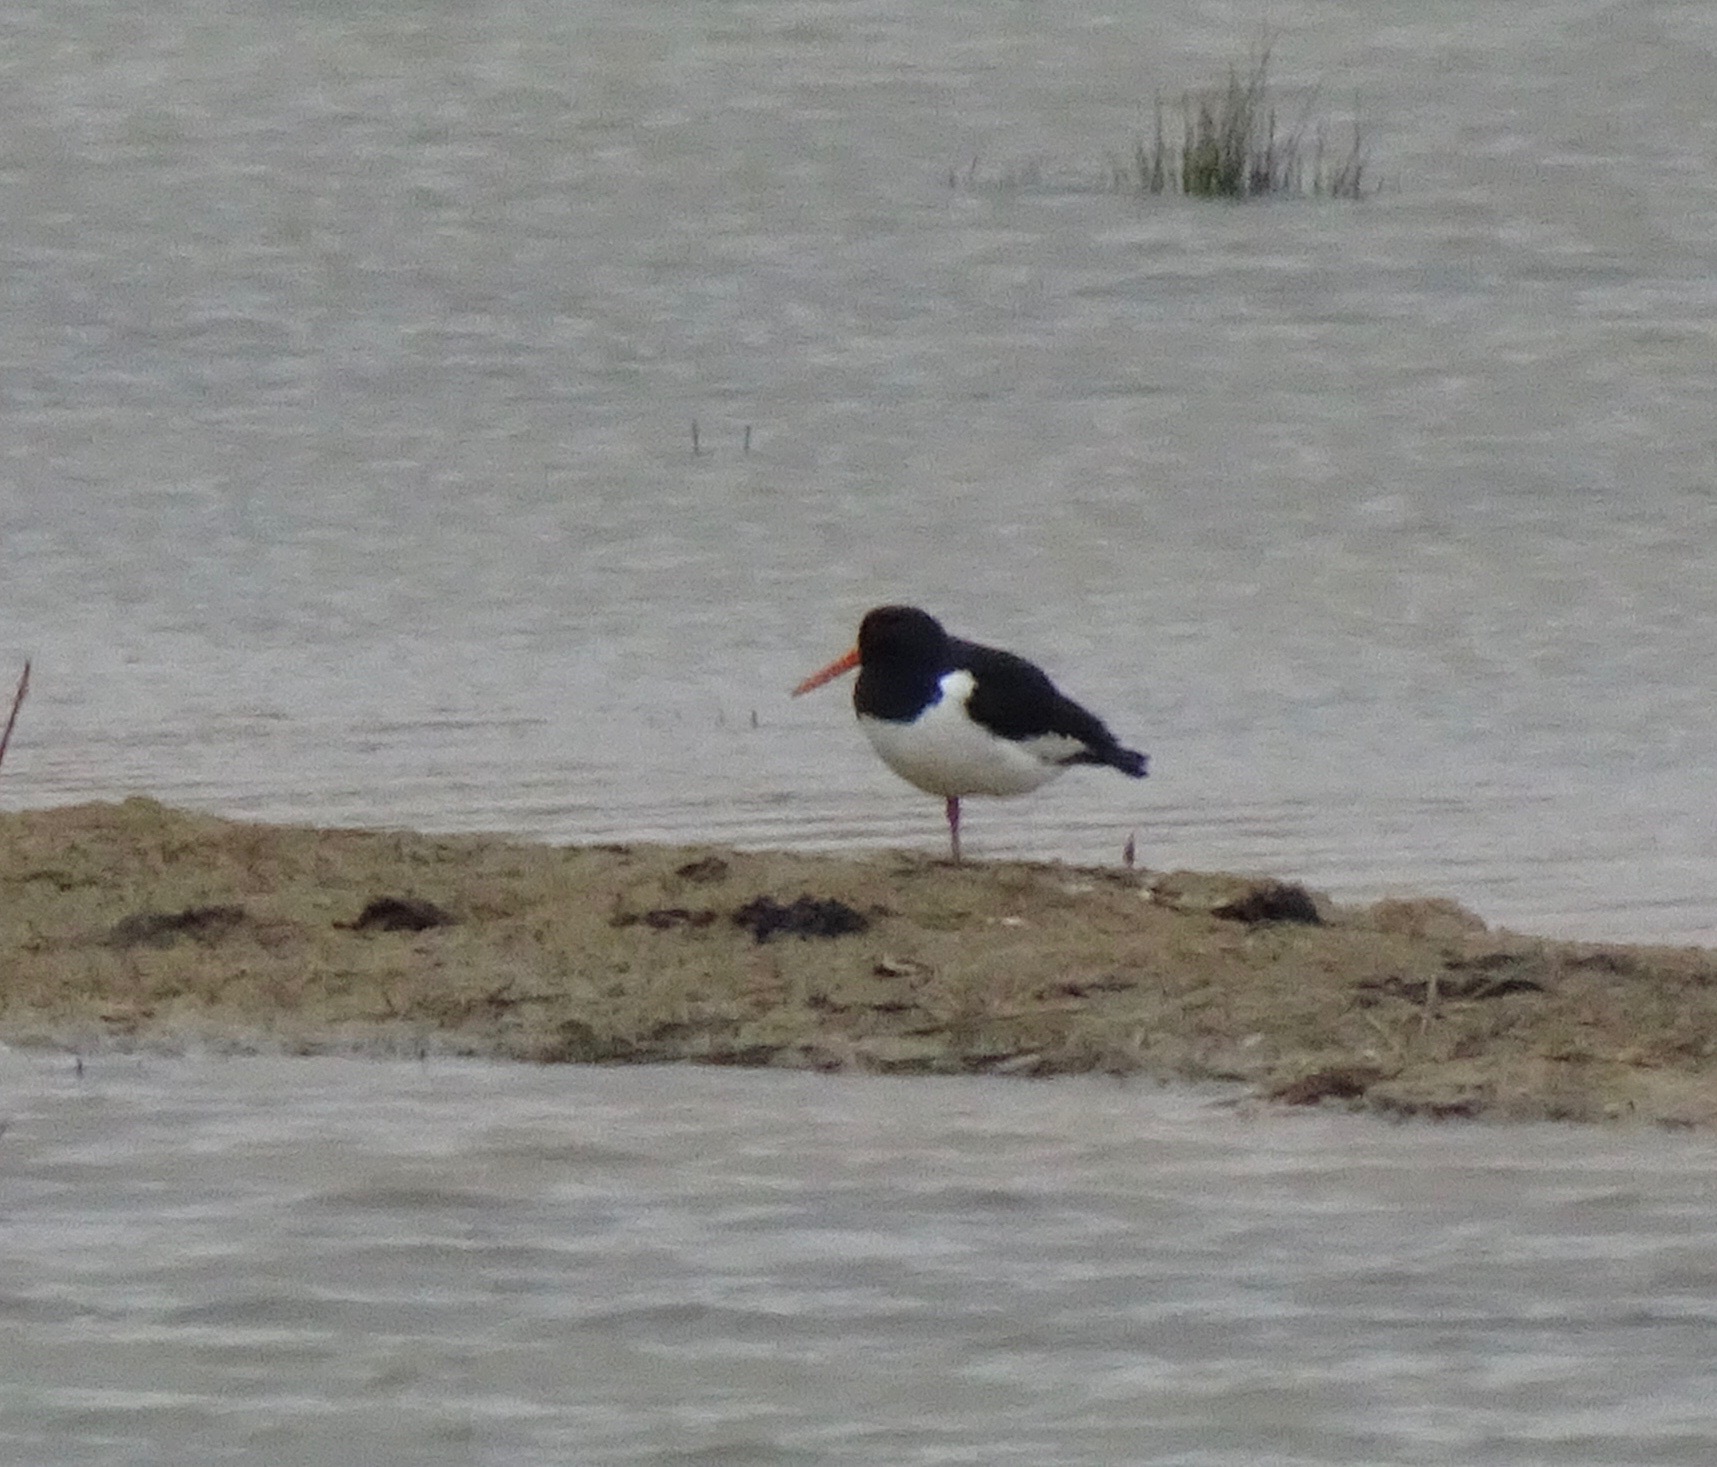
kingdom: Animalia
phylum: Chordata
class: Aves
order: Charadriiformes
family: Haematopodidae
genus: Haematopus
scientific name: Haematopus ostralegus
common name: Eurasian oystercatcher
